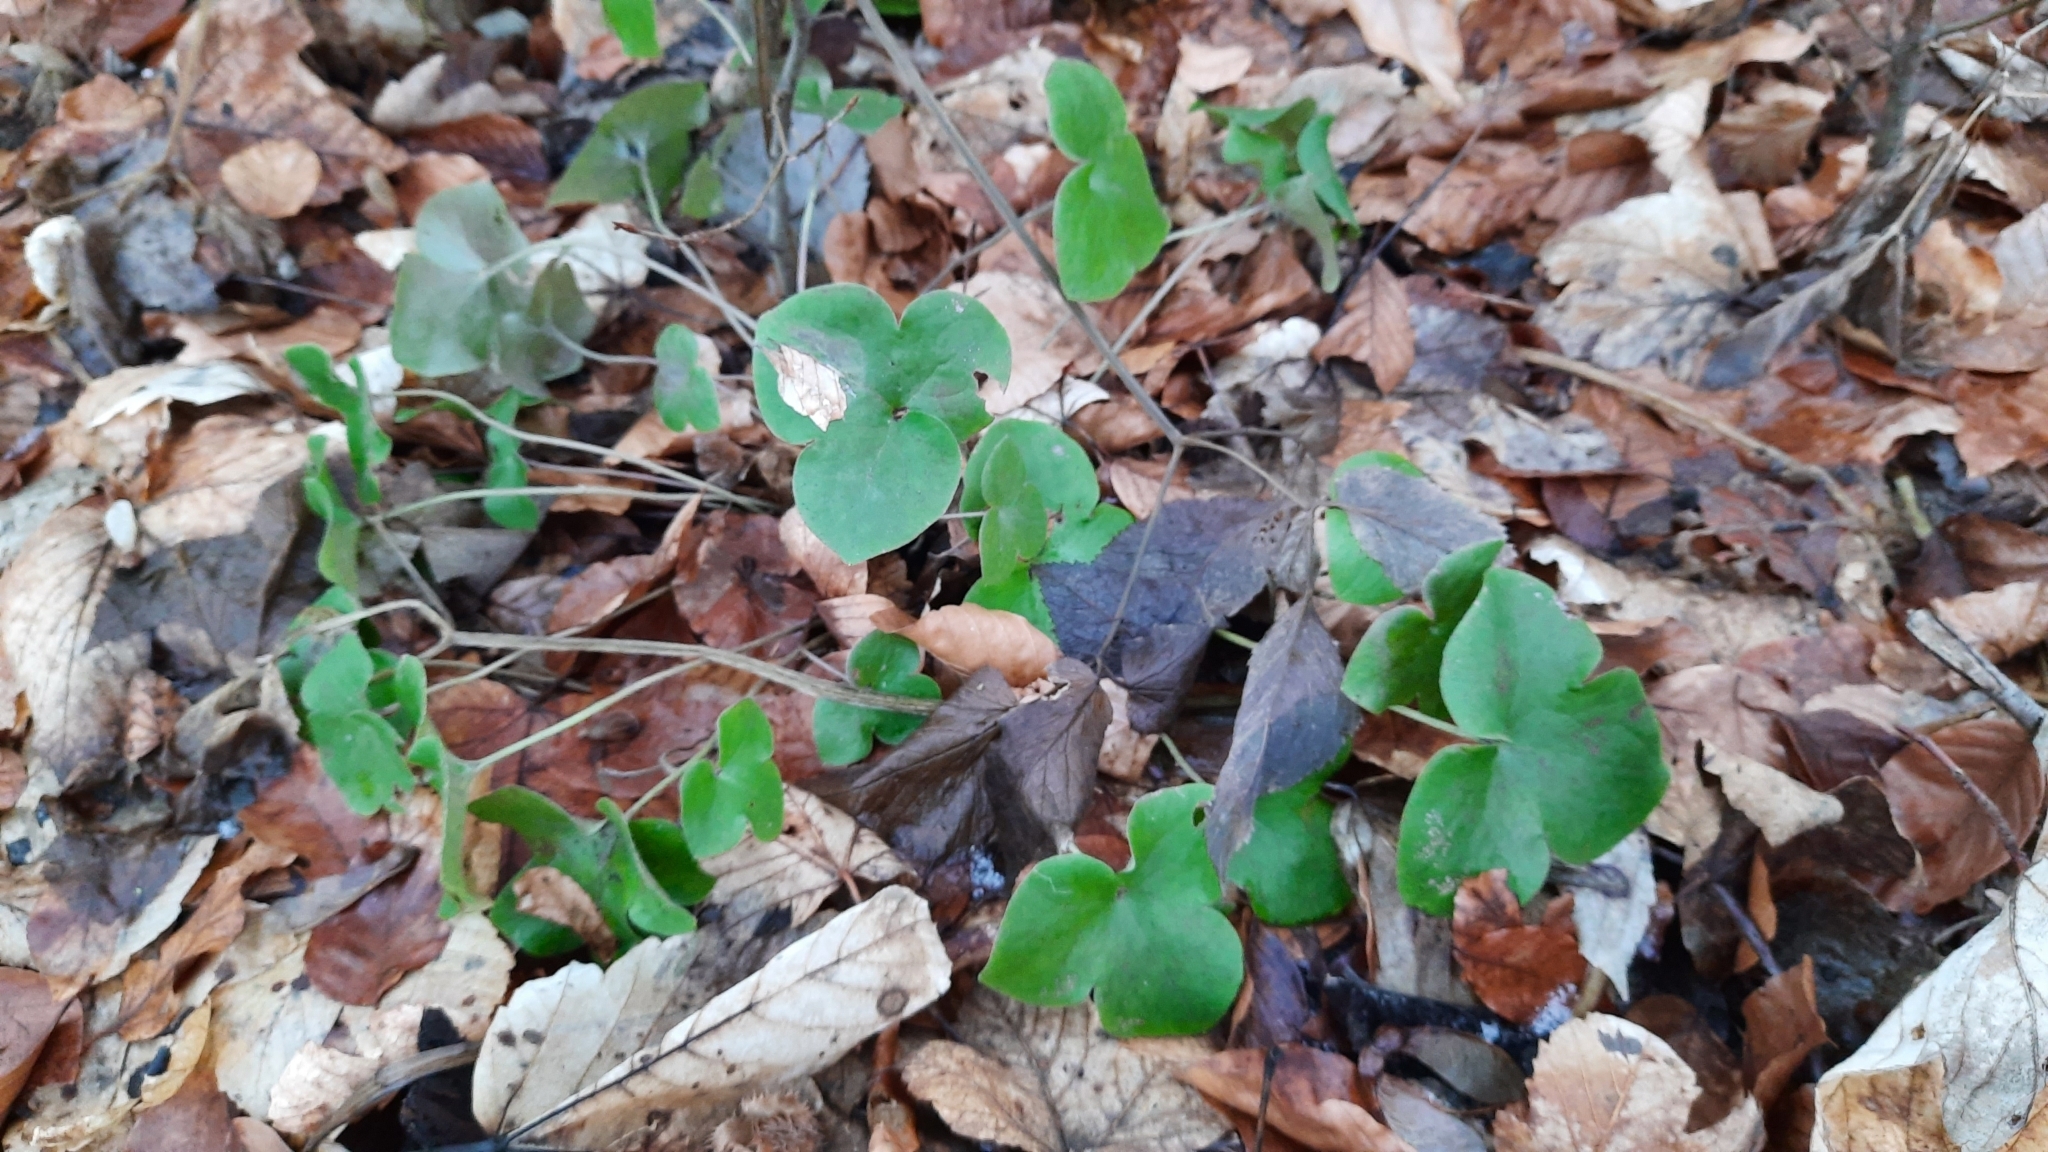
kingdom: Plantae
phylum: Tracheophyta
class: Magnoliopsida
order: Ranunculales
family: Ranunculaceae
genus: Hepatica
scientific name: Hepatica nobilis
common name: Liverleaf
